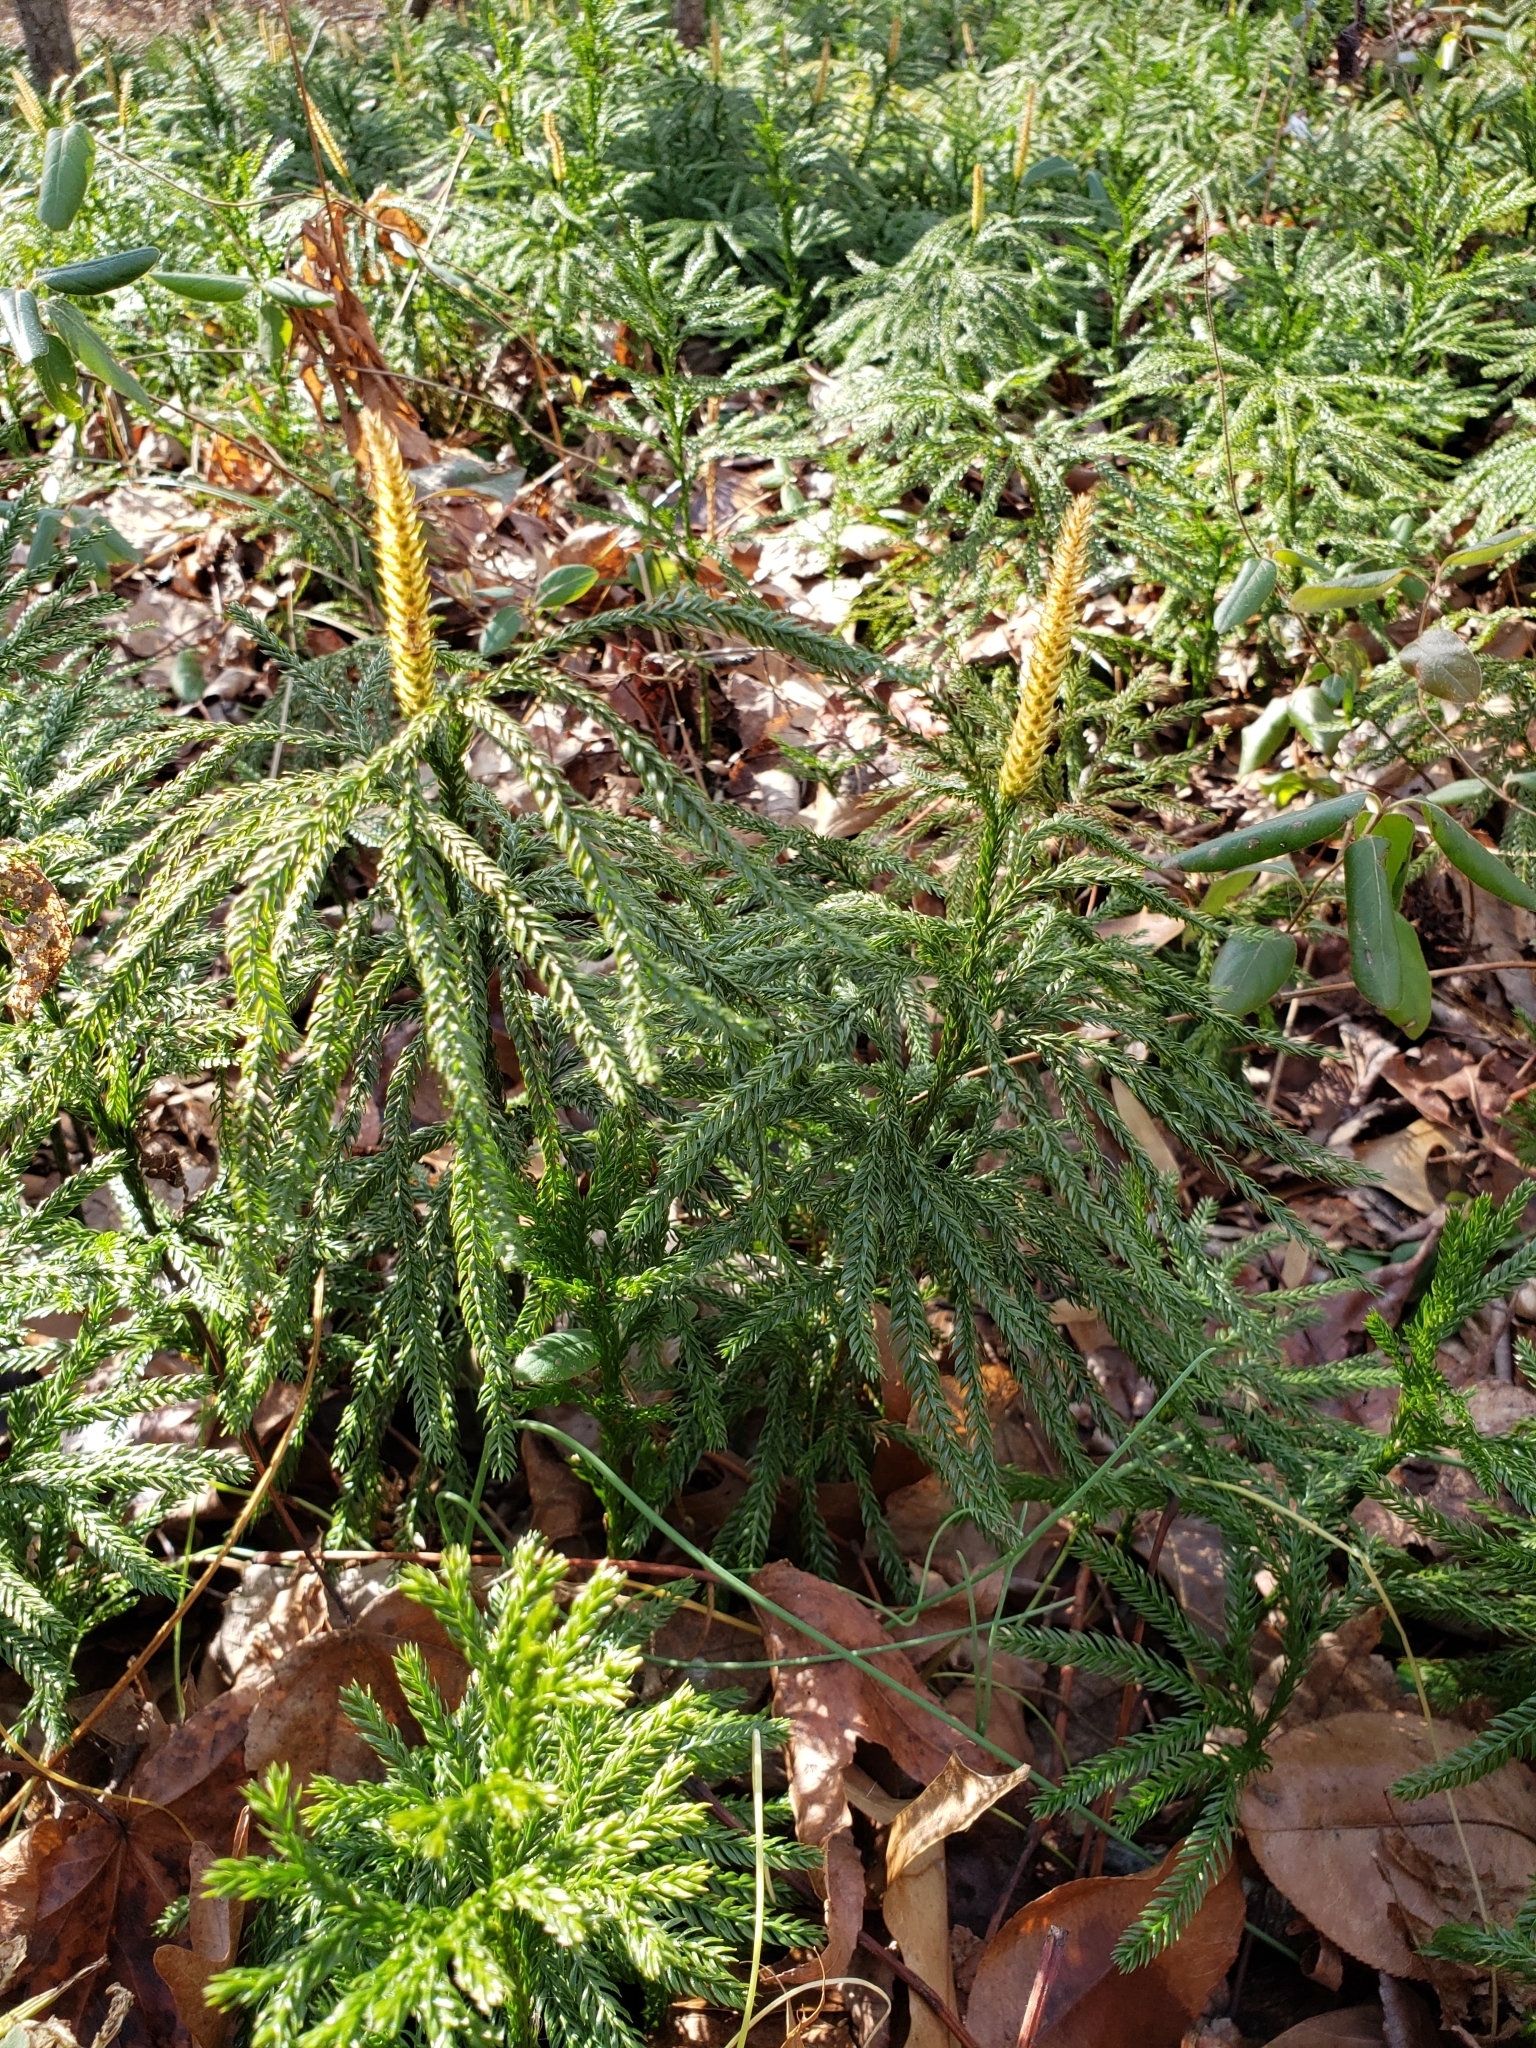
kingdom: Plantae
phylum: Tracheophyta
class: Lycopodiopsida
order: Lycopodiales
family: Lycopodiaceae
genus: Dendrolycopodium
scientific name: Dendrolycopodium obscurum
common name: Common ground-pine
